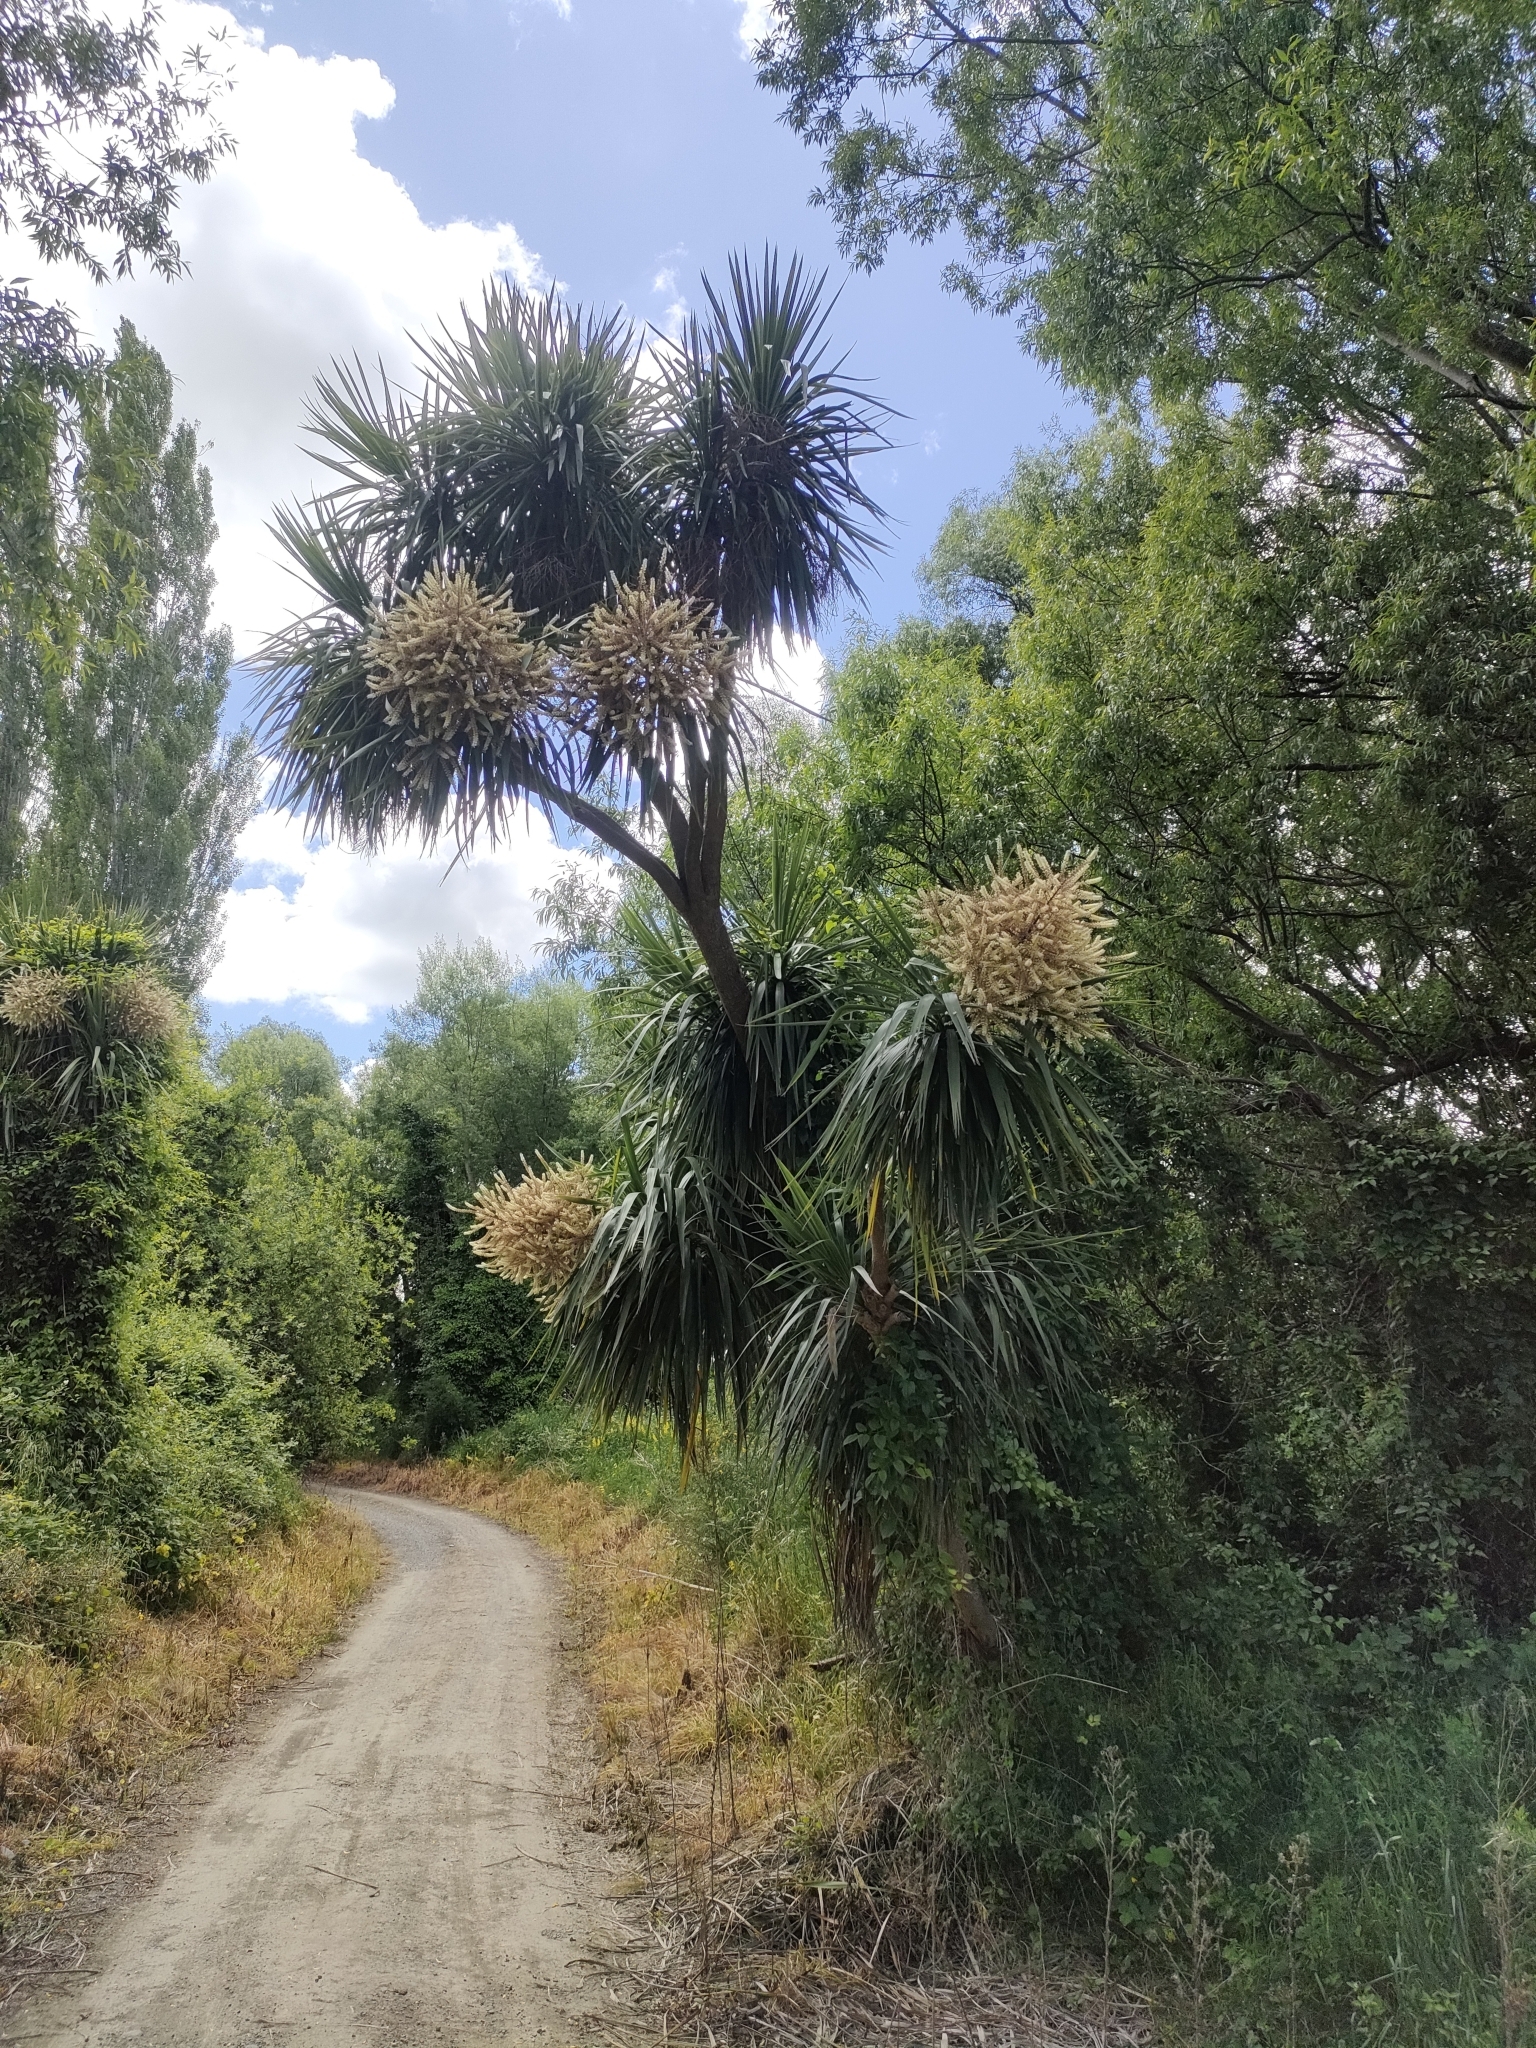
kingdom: Plantae
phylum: Tracheophyta
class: Liliopsida
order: Asparagales
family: Asparagaceae
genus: Cordyline
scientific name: Cordyline australis
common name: Cabbage-palm
